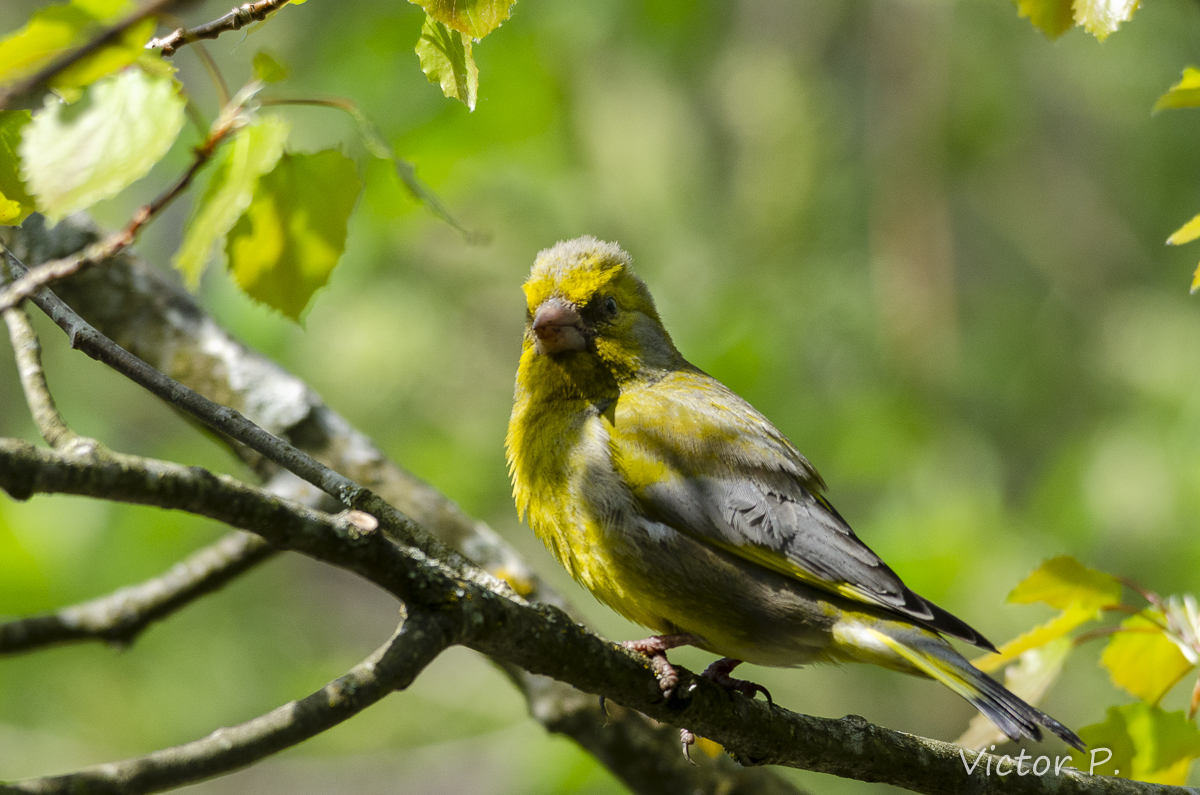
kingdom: Plantae
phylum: Tracheophyta
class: Liliopsida
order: Poales
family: Poaceae
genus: Chloris
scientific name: Chloris chloris
